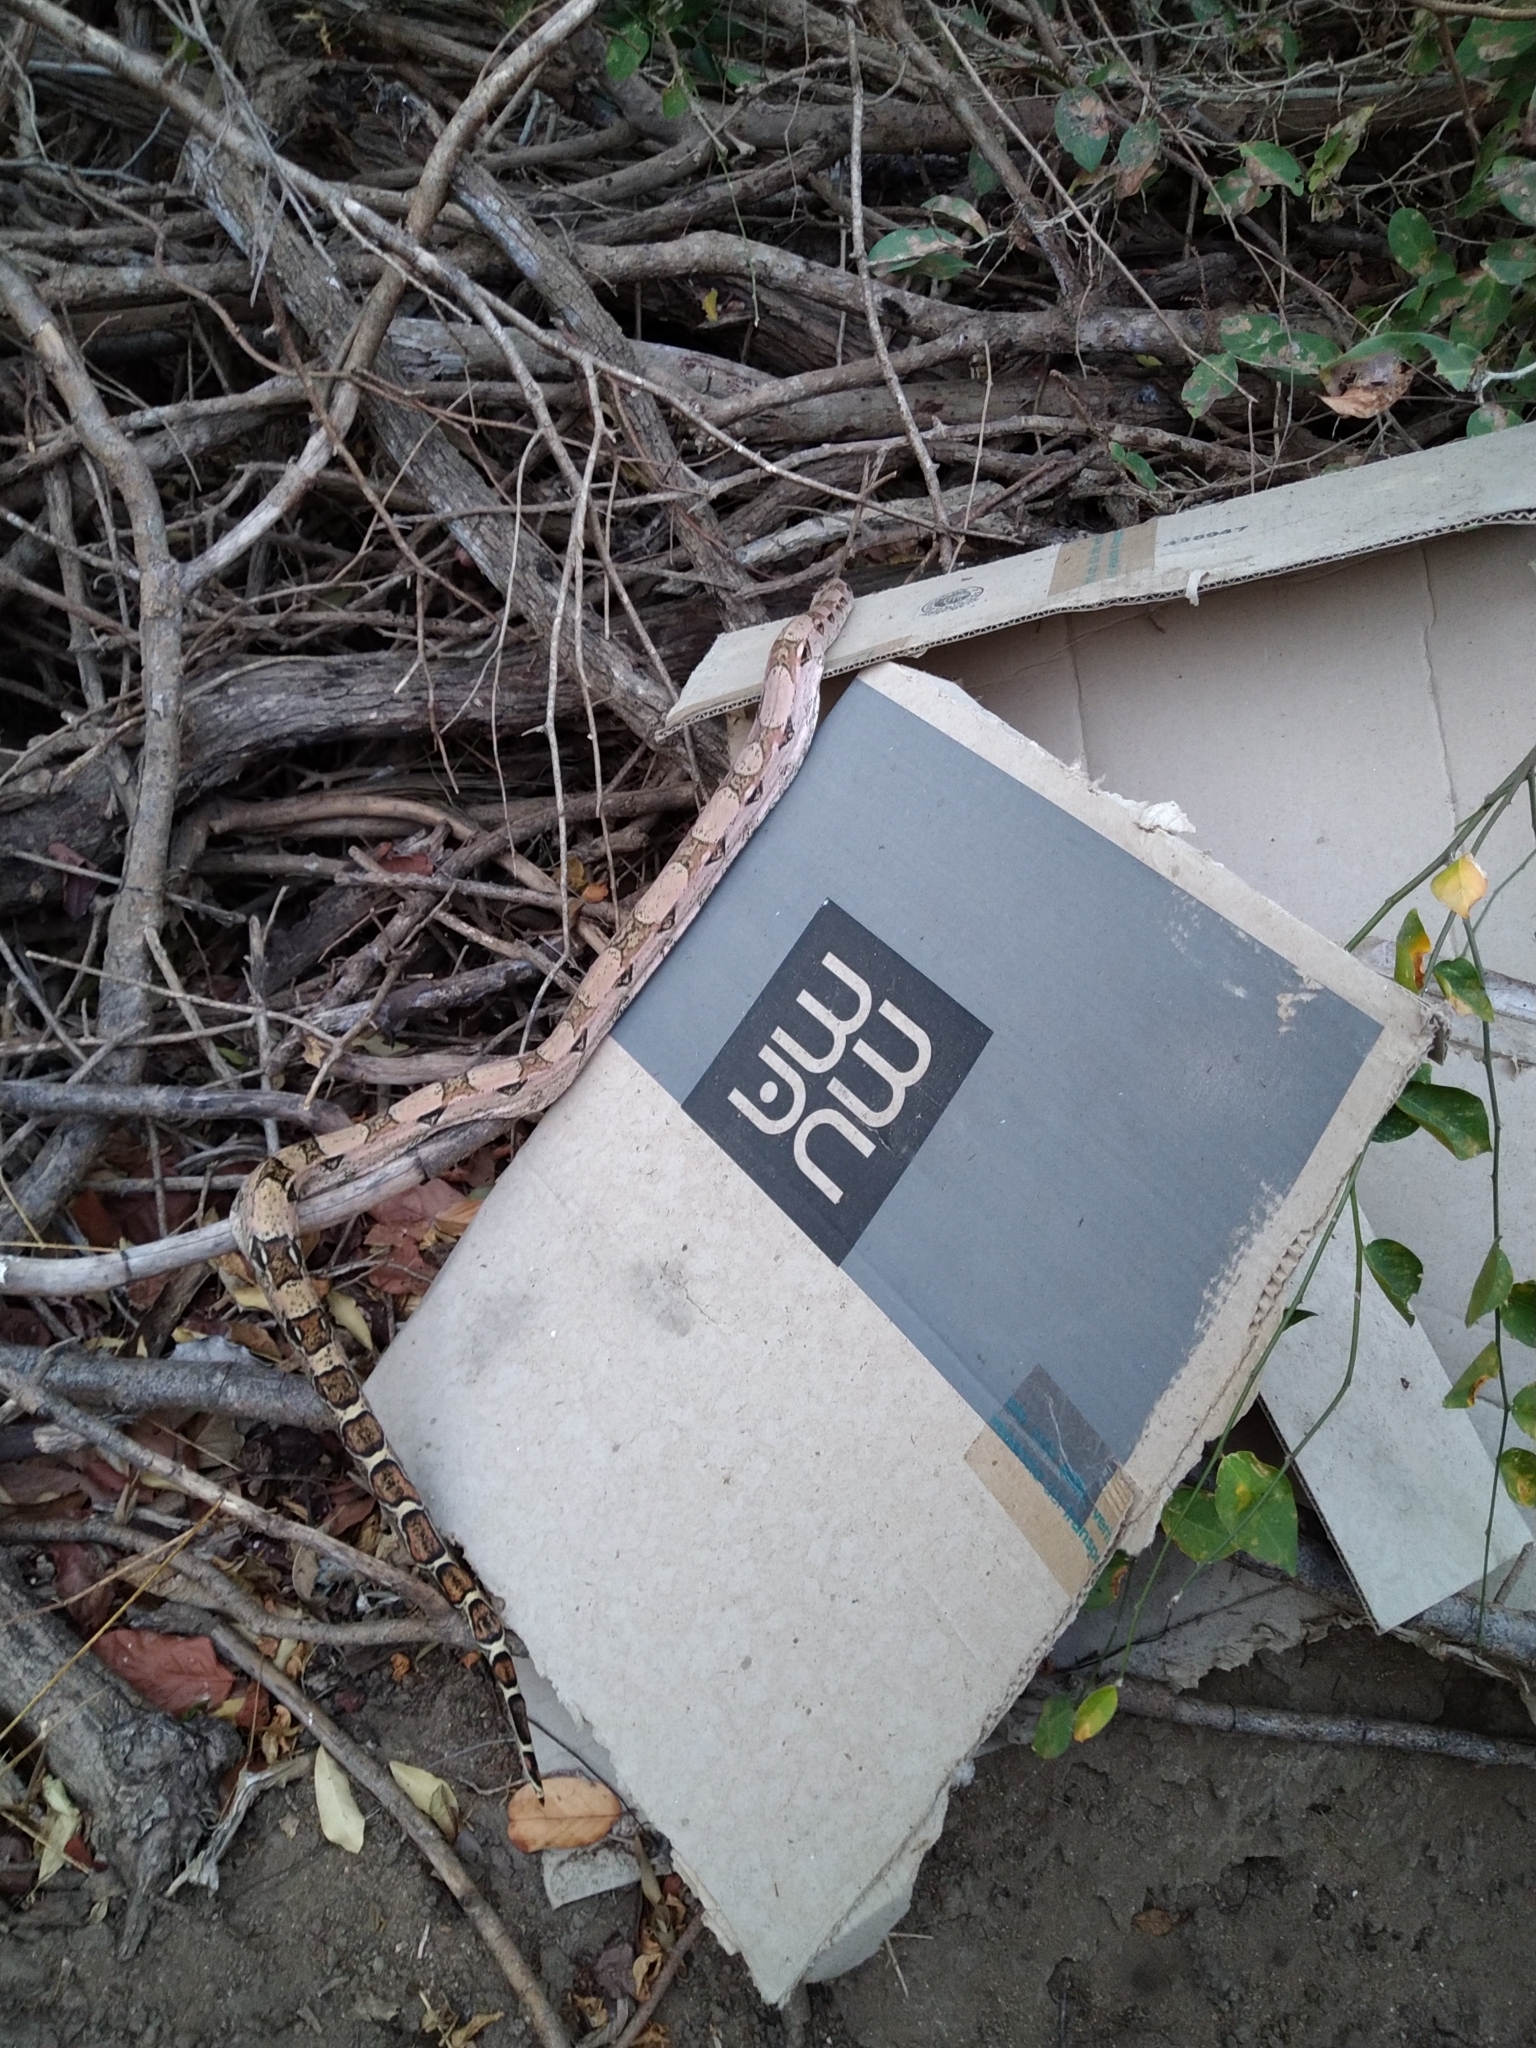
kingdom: Animalia
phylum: Chordata
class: Squamata
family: Boidae
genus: Boa
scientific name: Boa constrictor
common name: Boa constrictor
